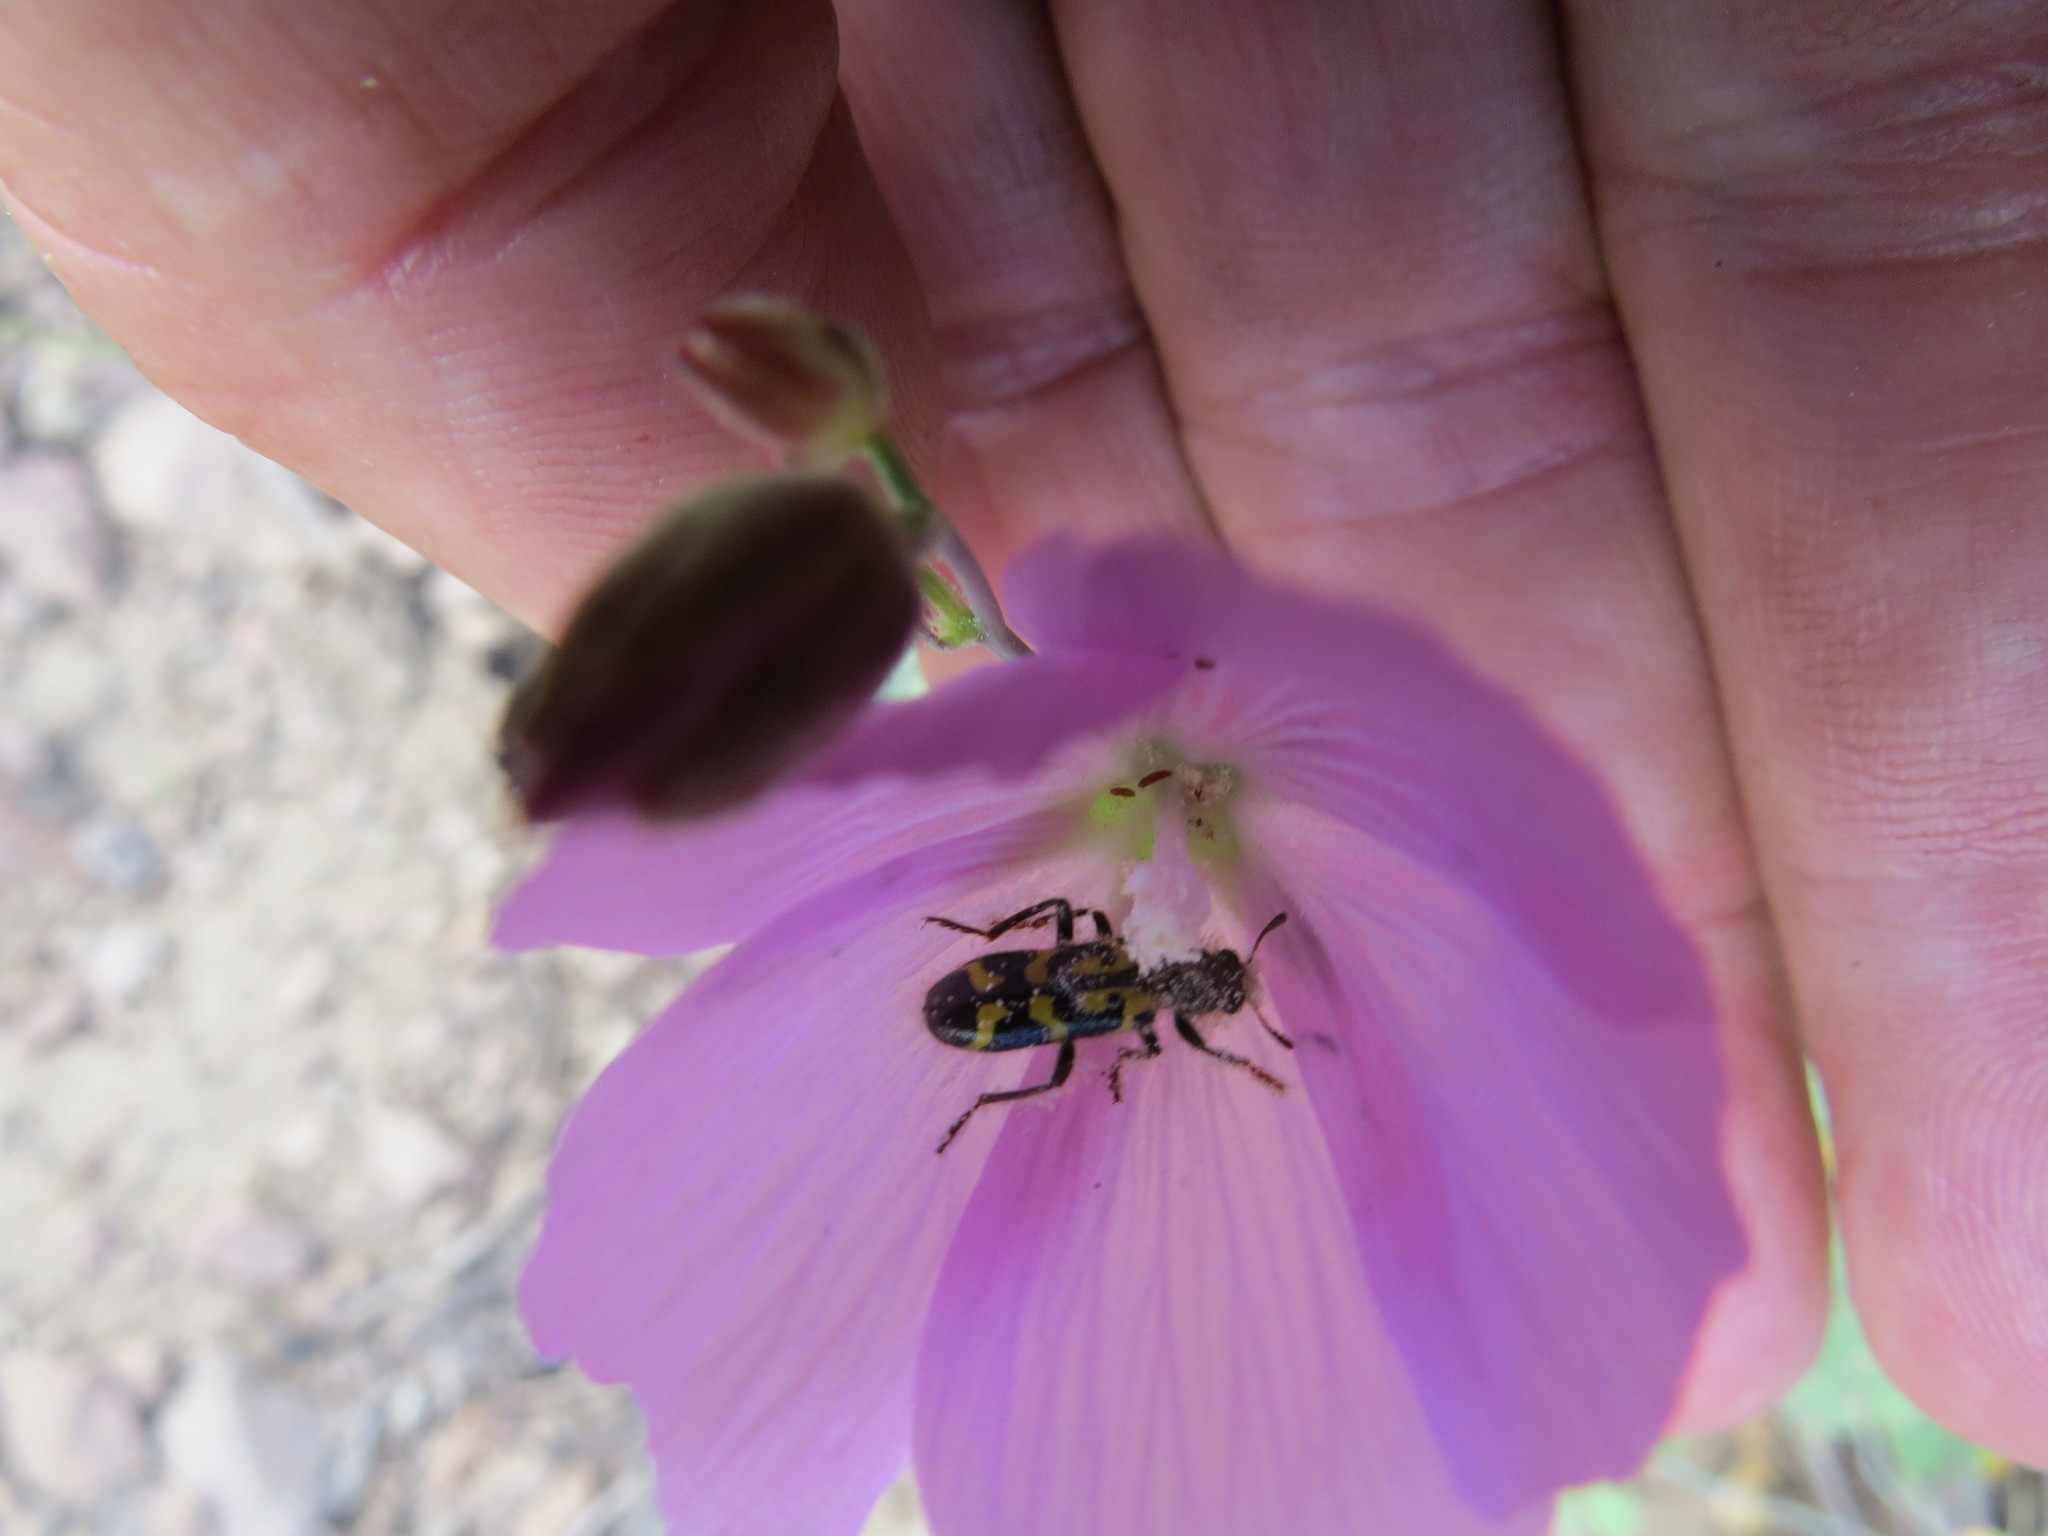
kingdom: Animalia
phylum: Arthropoda
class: Insecta
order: Coleoptera
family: Cleridae
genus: Trichodes
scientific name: Trichodes ornatus
